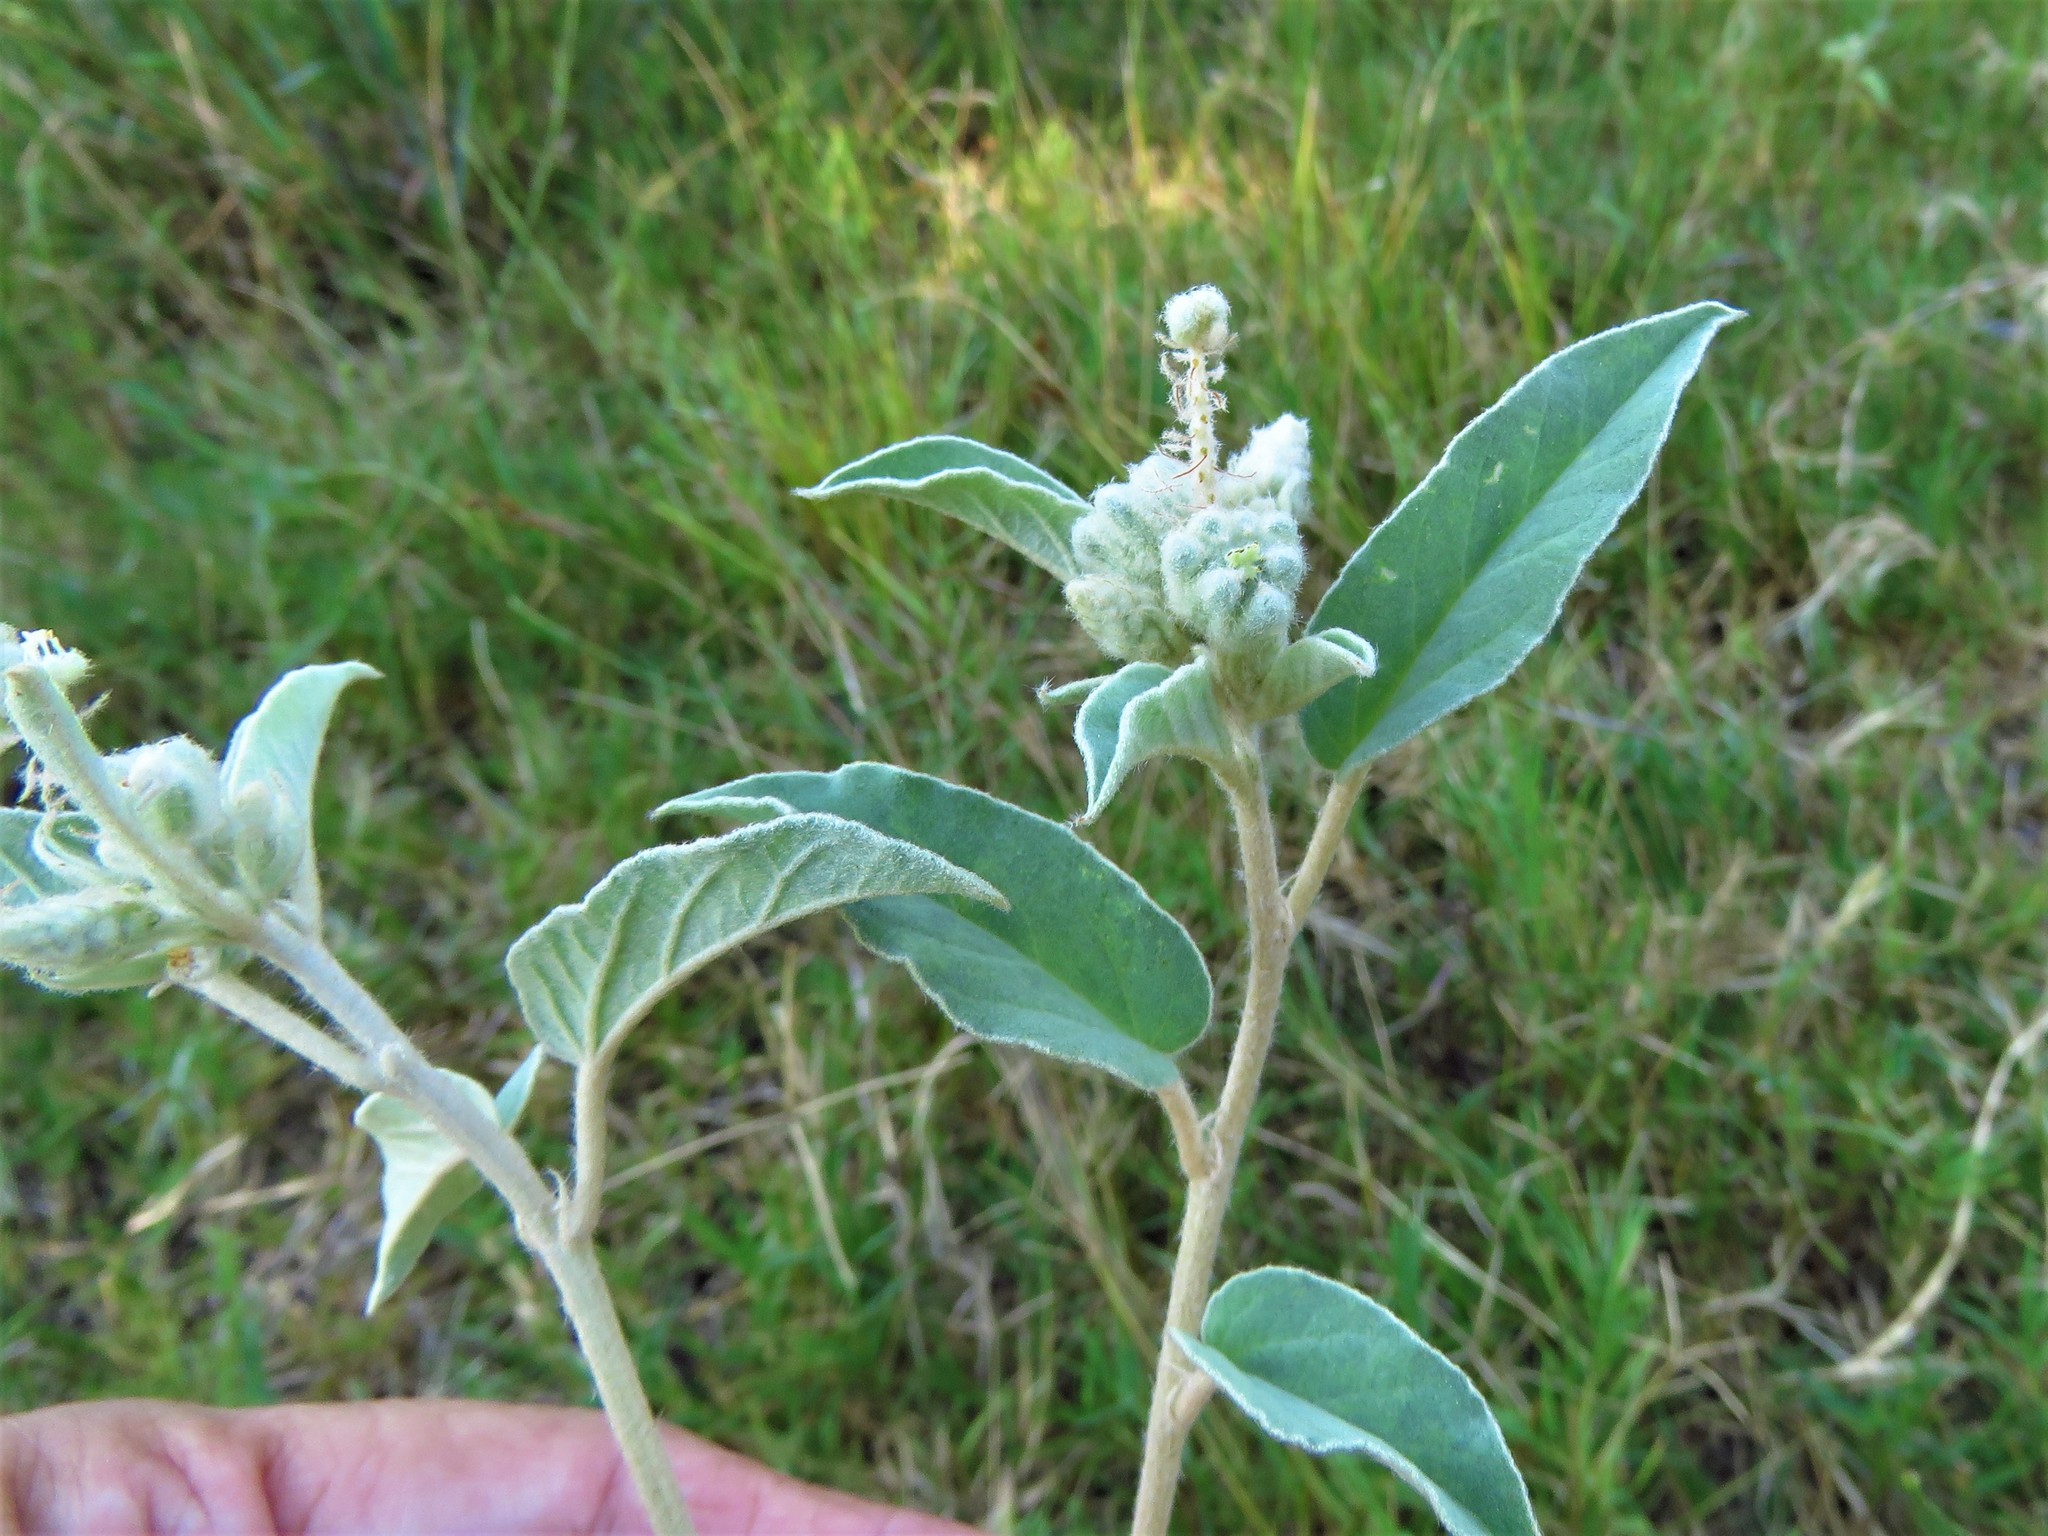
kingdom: Plantae
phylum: Tracheophyta
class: Magnoliopsida
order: Malpighiales
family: Euphorbiaceae
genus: Croton
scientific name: Croton lindheimeri
